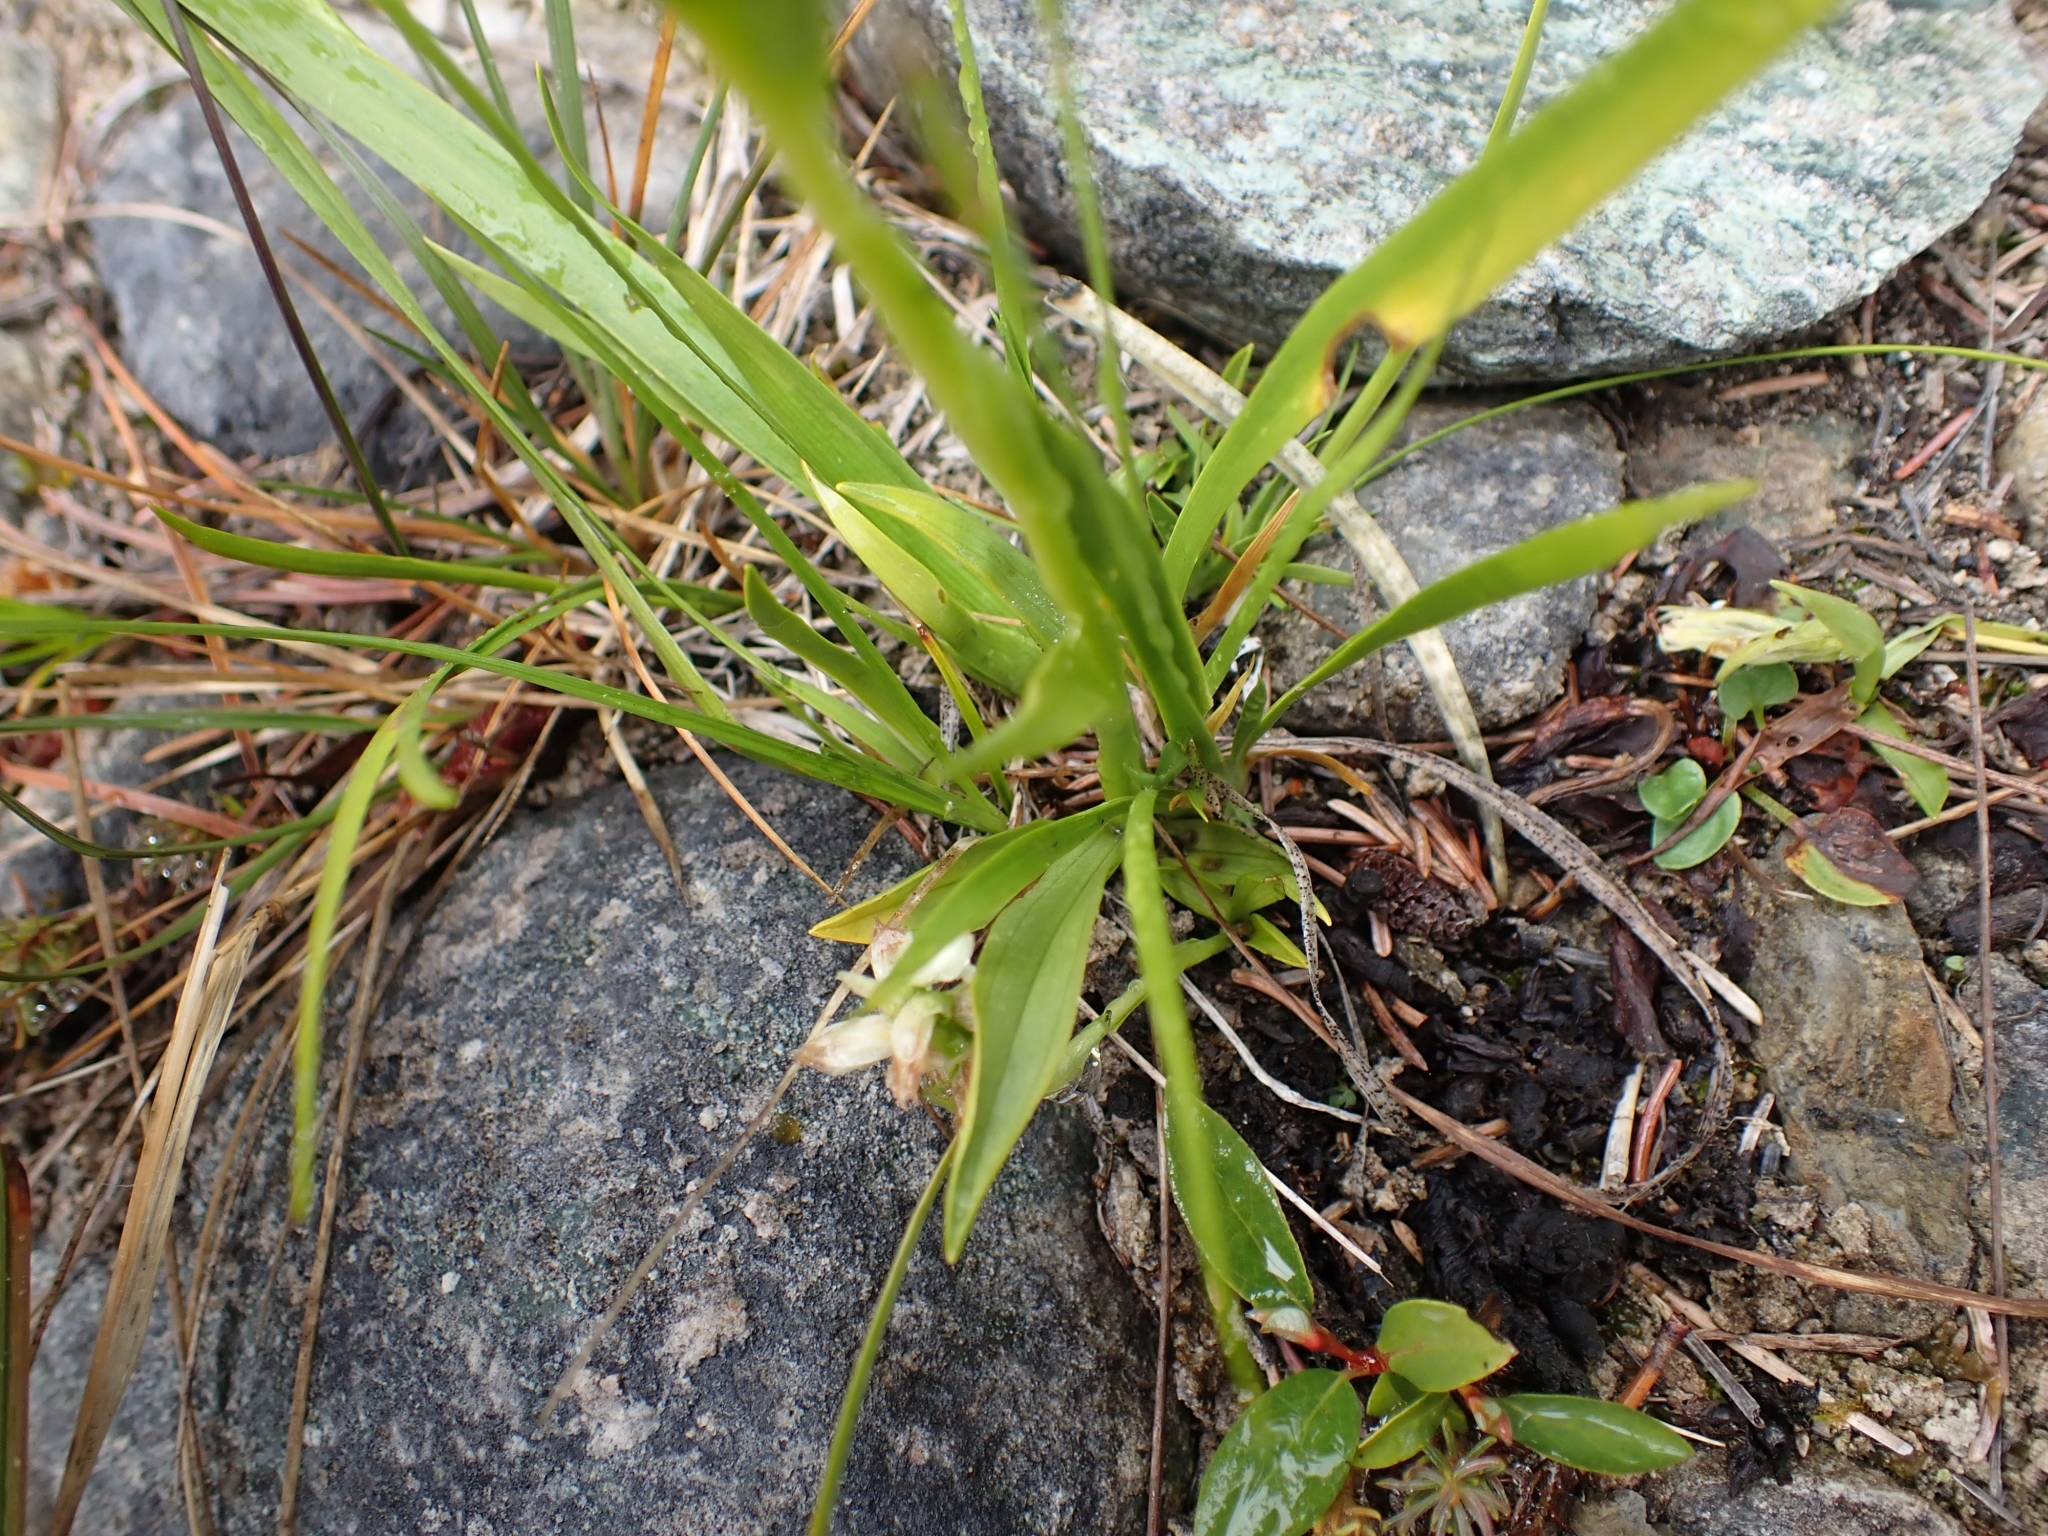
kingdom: Plantae
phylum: Tracheophyta
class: Liliopsida
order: Asparagales
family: Orchidaceae
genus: Spiranthes
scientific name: Spiranthes romanzoffiana
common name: Irish lady's-tresses
